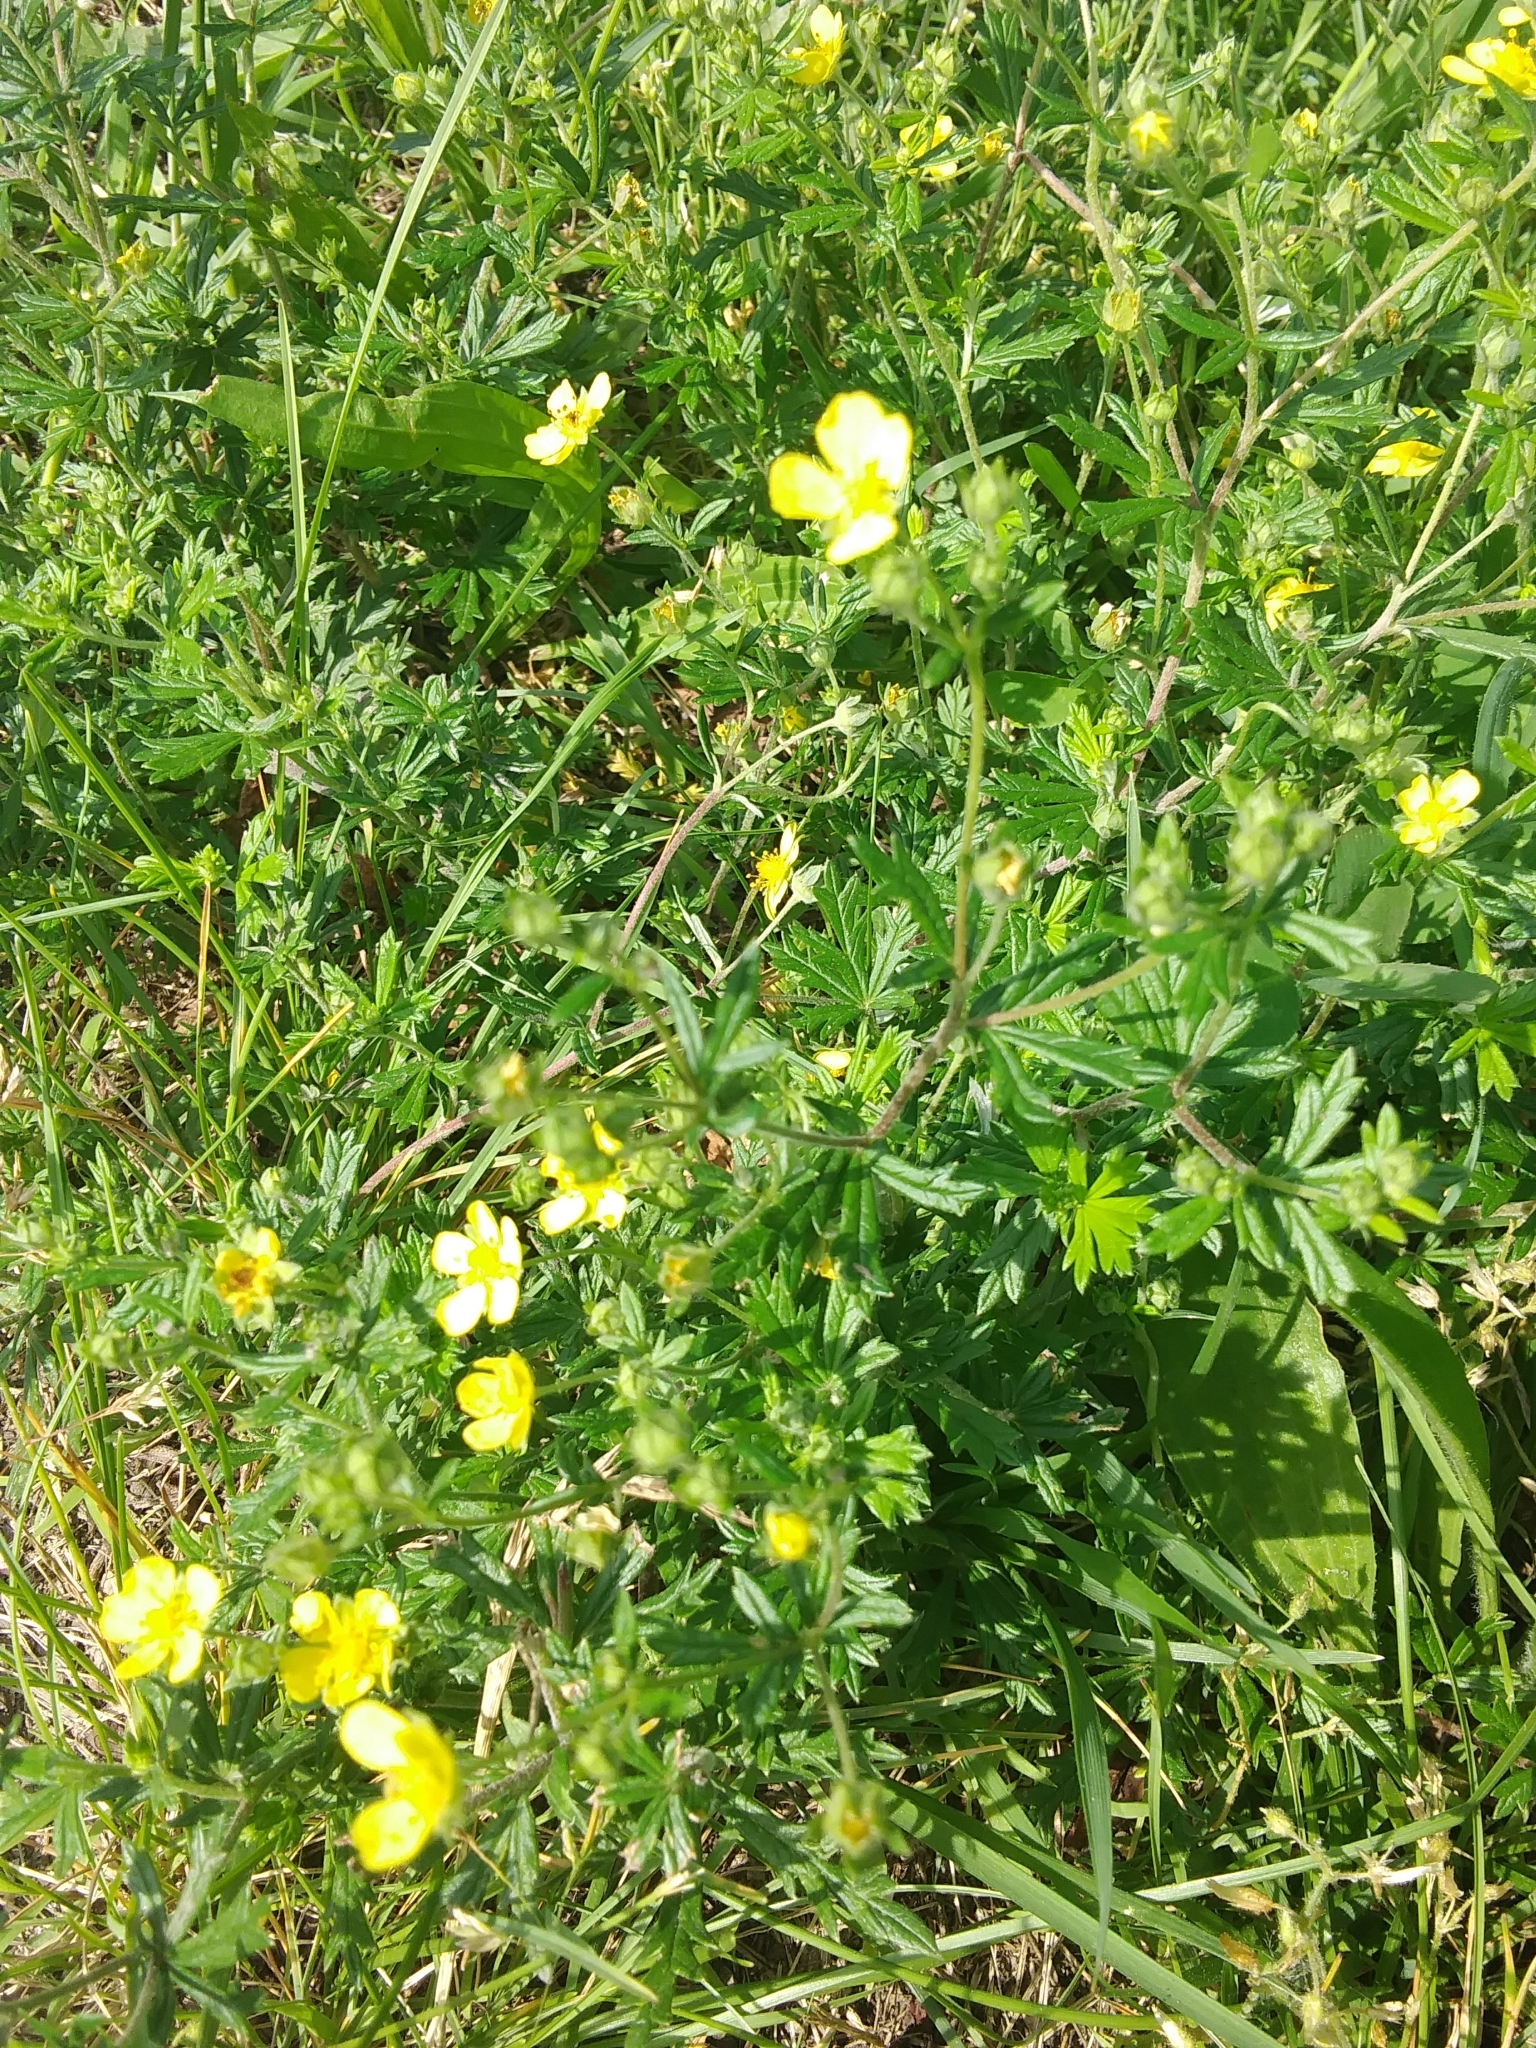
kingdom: Plantae
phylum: Tracheophyta
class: Magnoliopsida
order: Rosales
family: Rosaceae
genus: Potentilla
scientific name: Potentilla argentea
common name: Hoary cinquefoil
